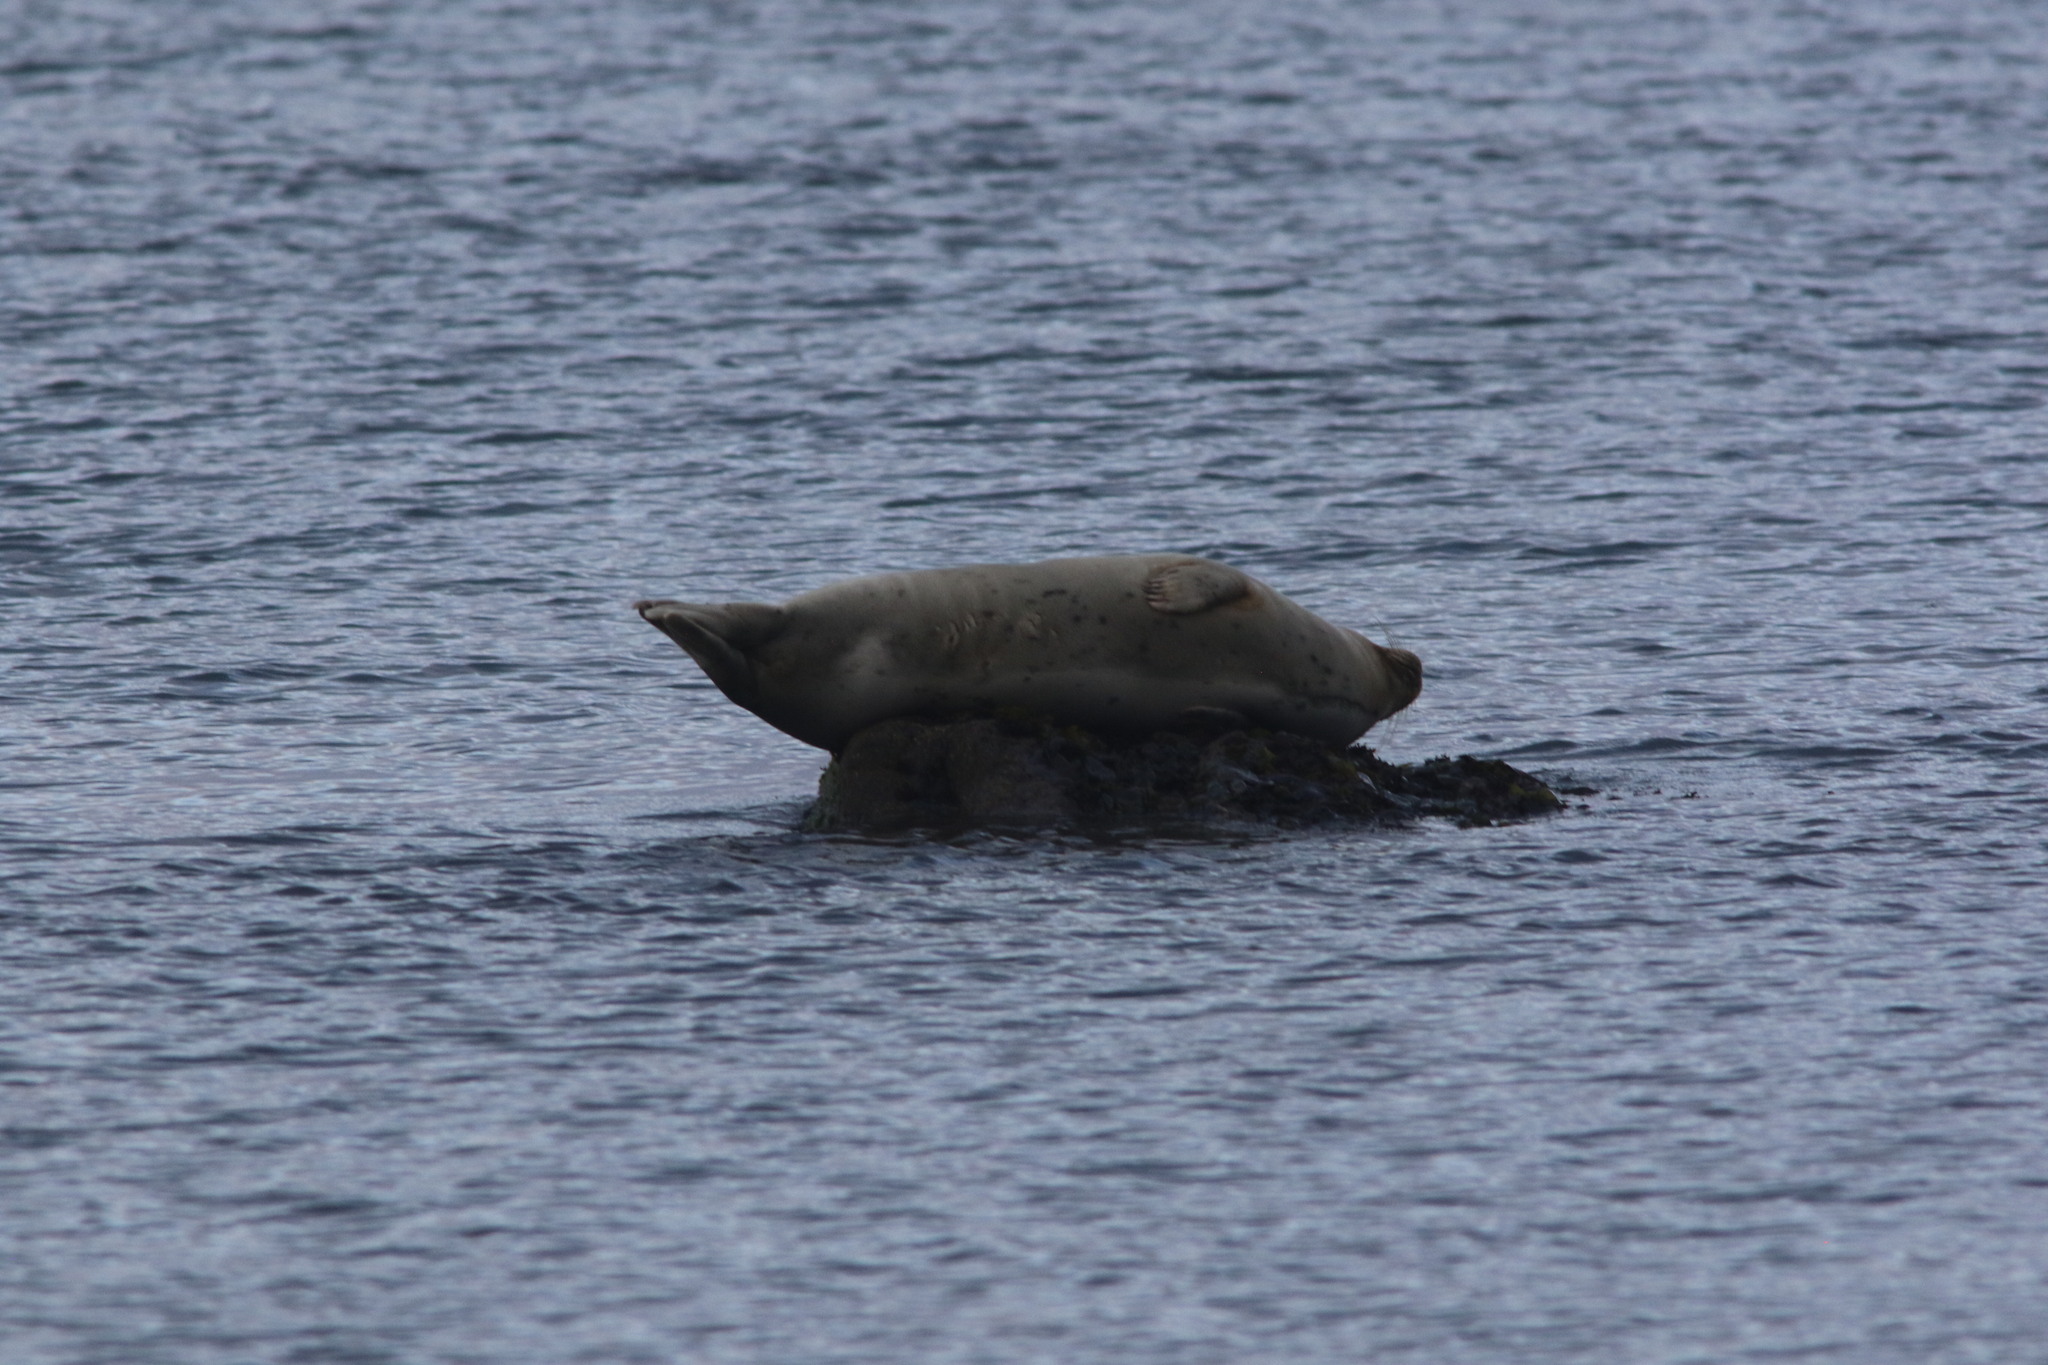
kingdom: Animalia
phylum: Chordata
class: Mammalia
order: Carnivora
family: Phocidae
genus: Phoca
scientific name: Phoca vitulina
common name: Harbor seal
